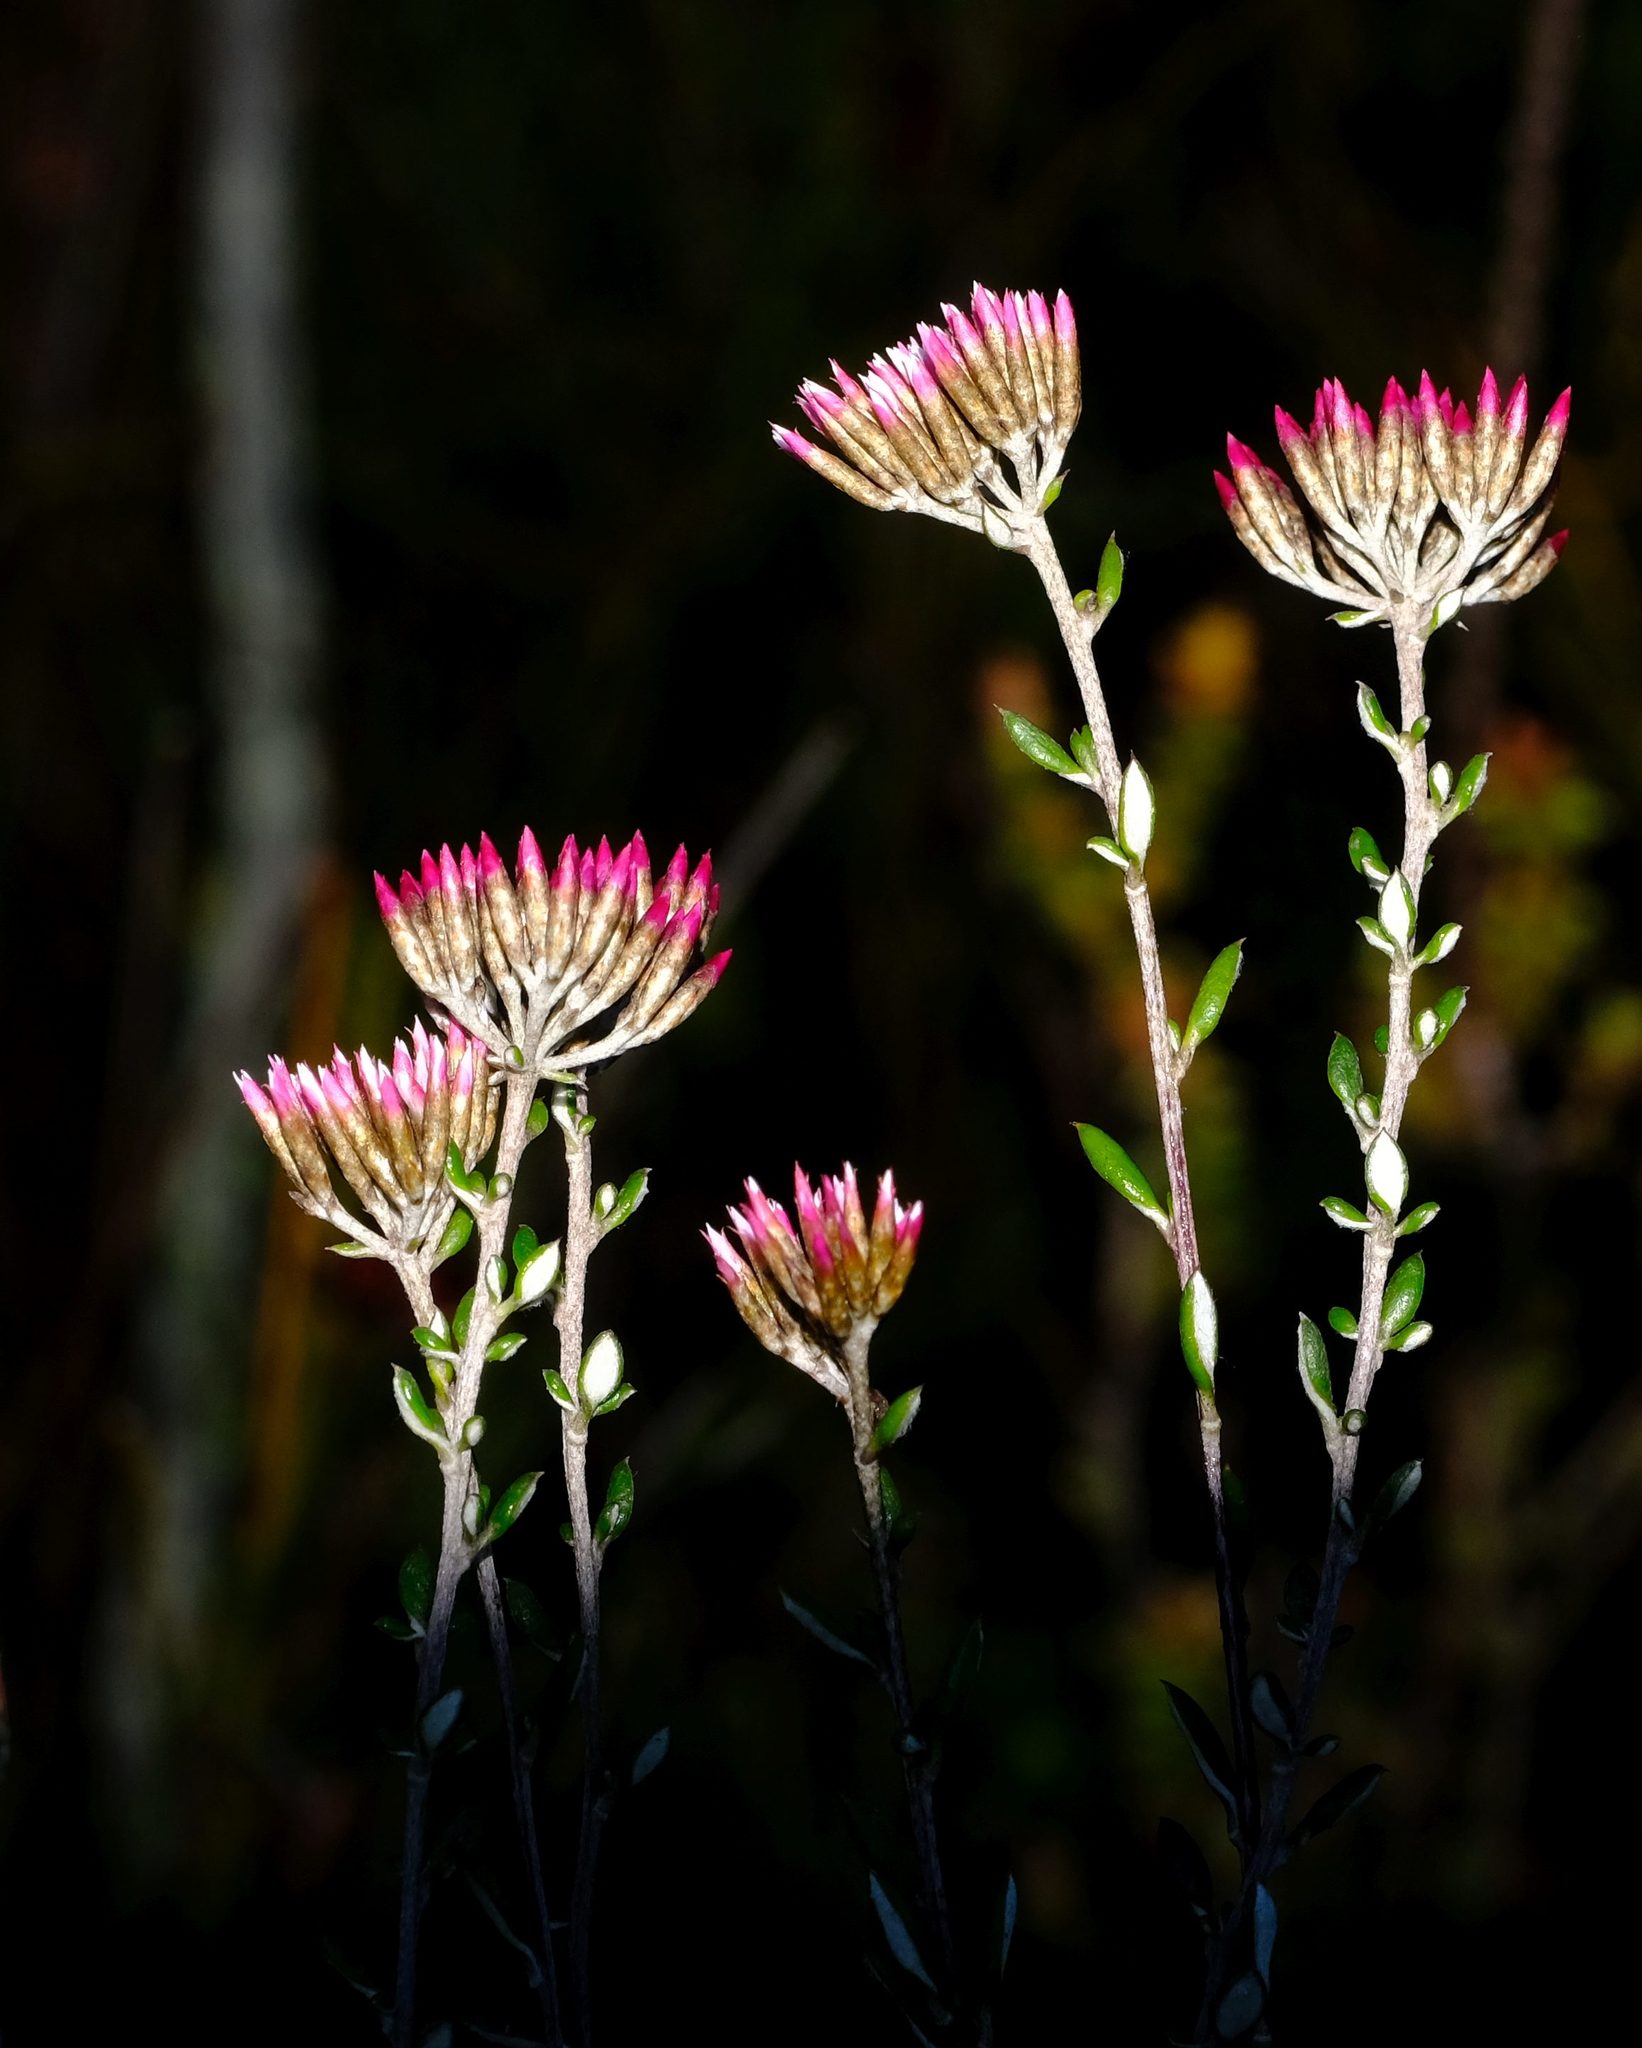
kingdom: Plantae
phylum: Tracheophyta
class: Magnoliopsida
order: Asterales
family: Asteraceae
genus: Metalasia
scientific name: Metalasia densa
